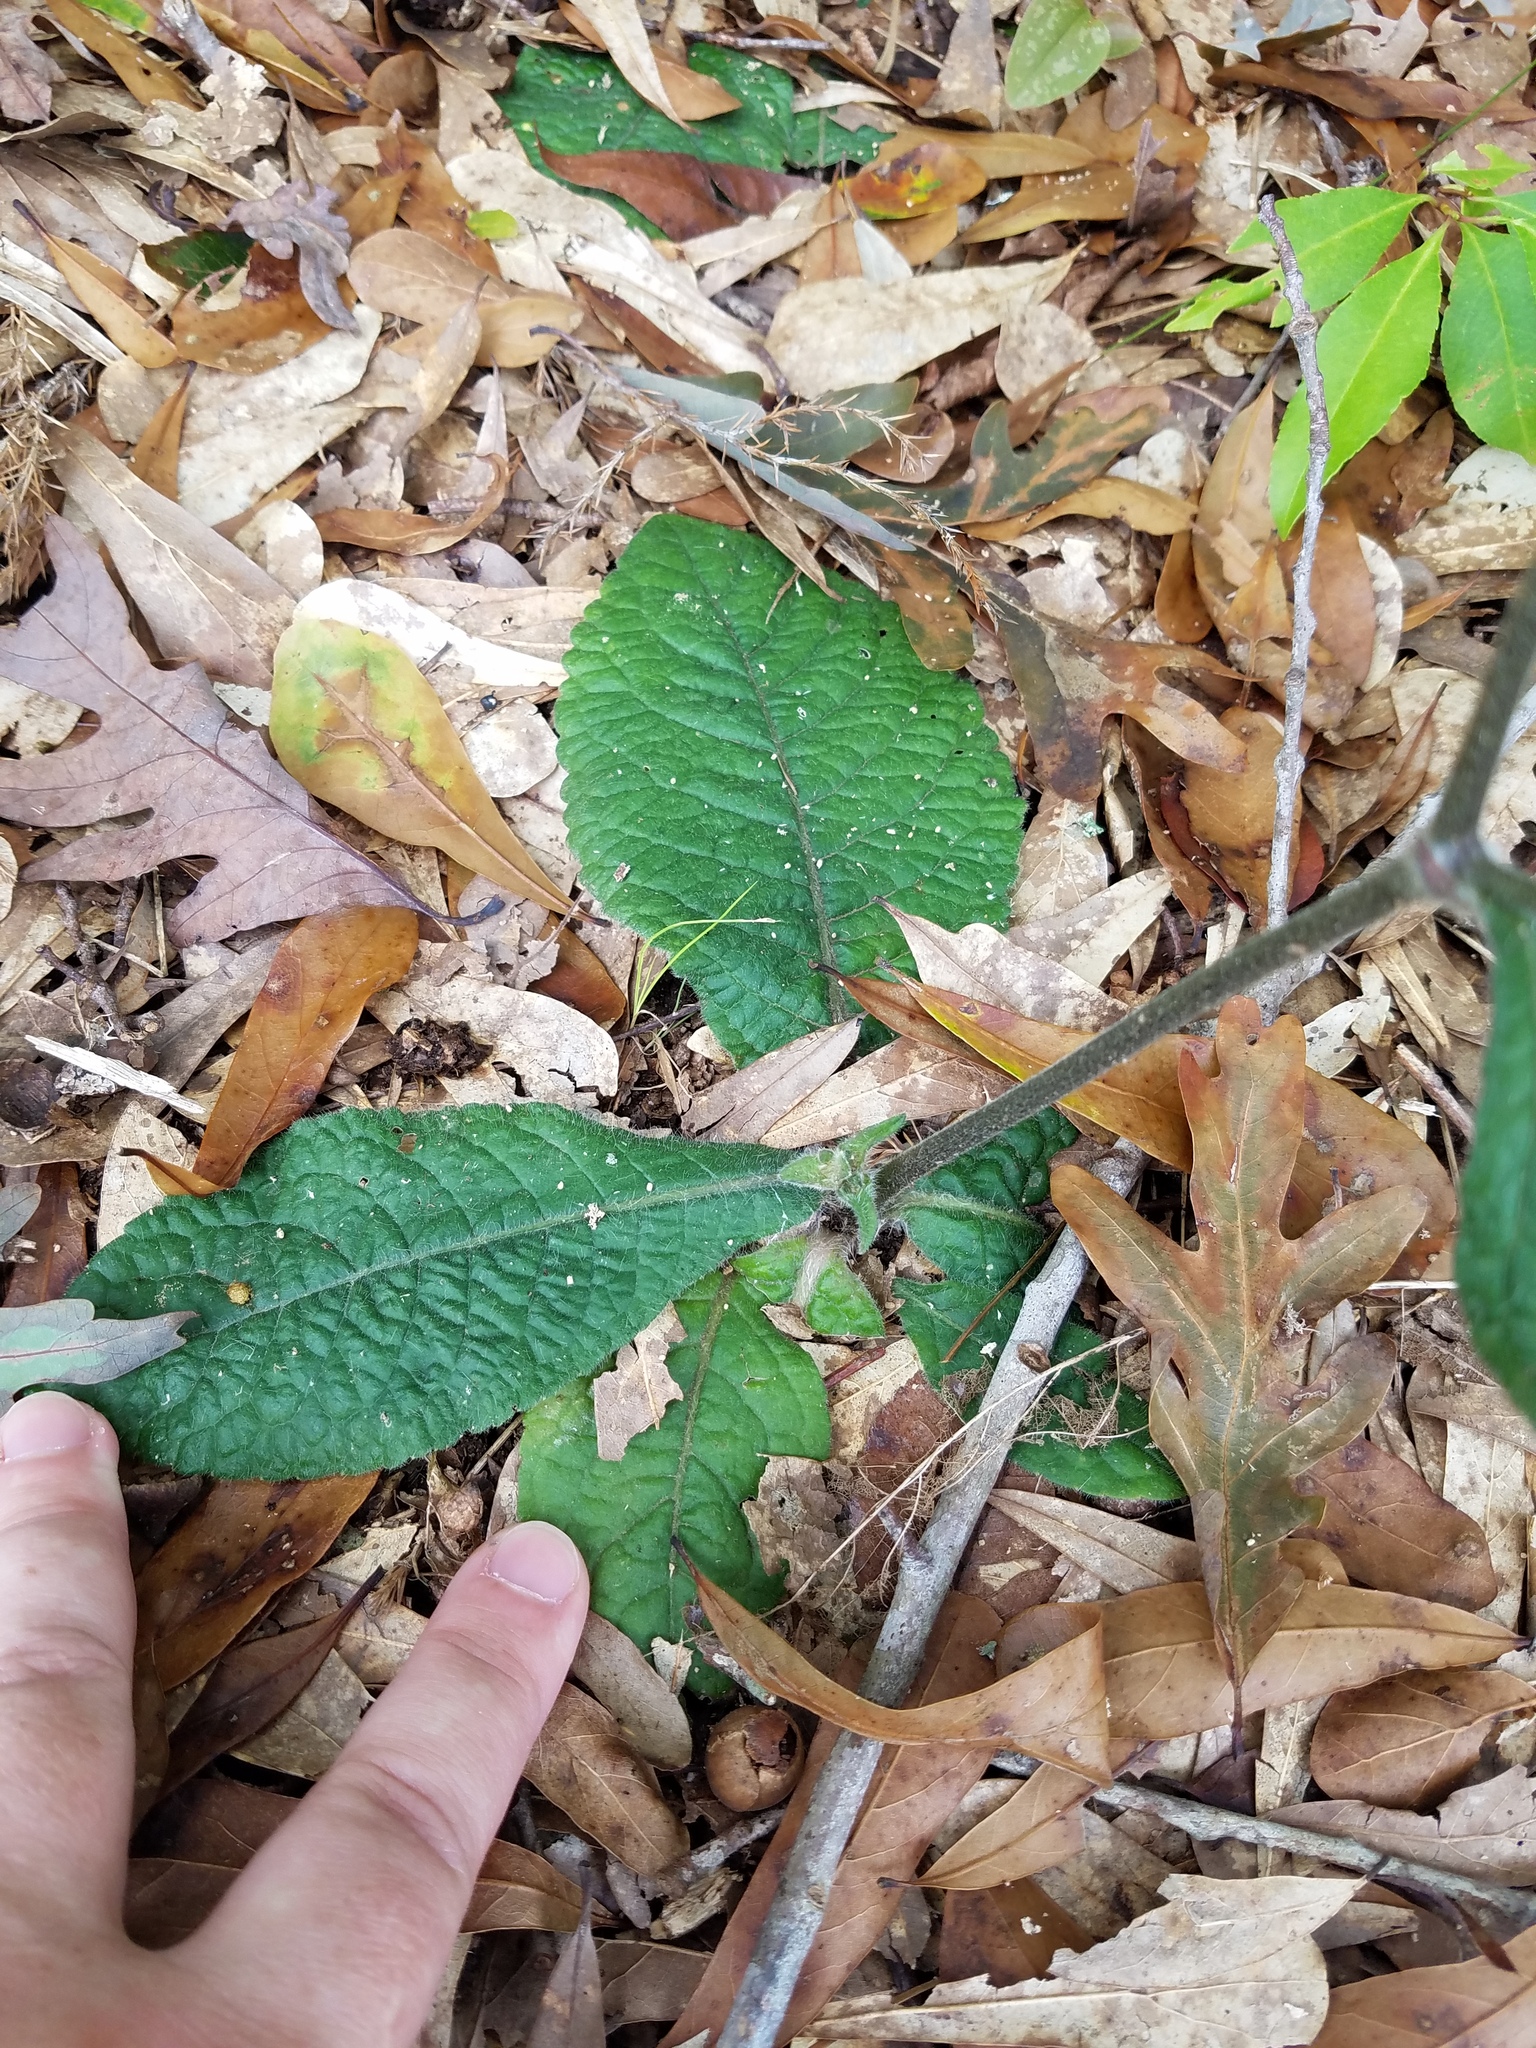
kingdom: Plantae
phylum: Tracheophyta
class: Magnoliopsida
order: Asterales
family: Asteraceae
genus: Elephantopus
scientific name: Elephantopus tomentosus
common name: Tobacco-weed
